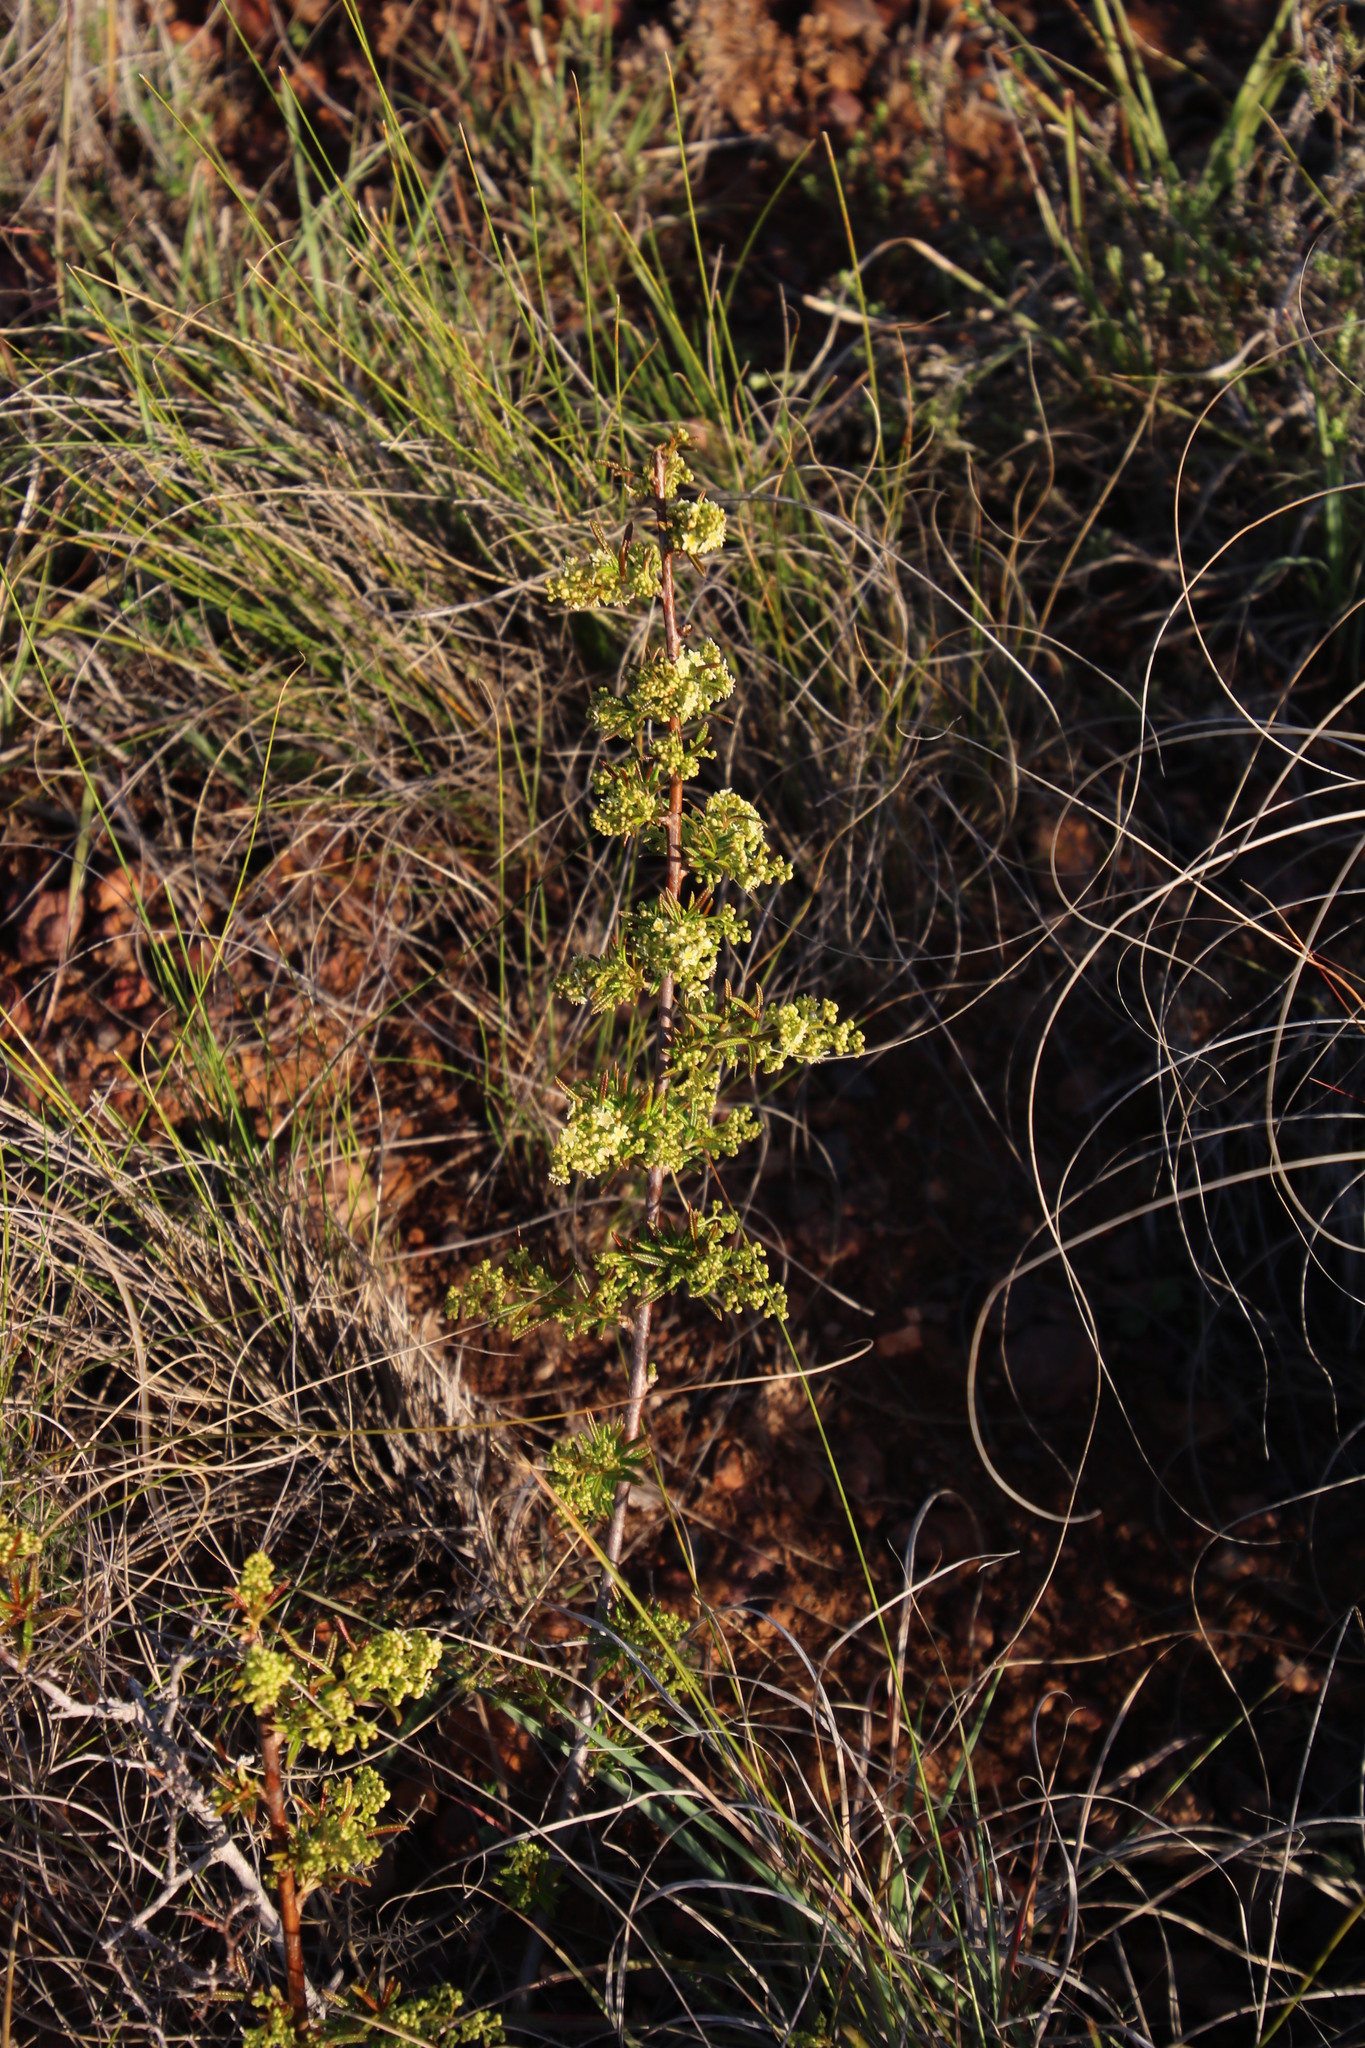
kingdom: Plantae
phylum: Tracheophyta
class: Magnoliopsida
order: Sapindales
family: Anacardiaceae
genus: Searsia
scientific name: Searsia rosmarinifolia
